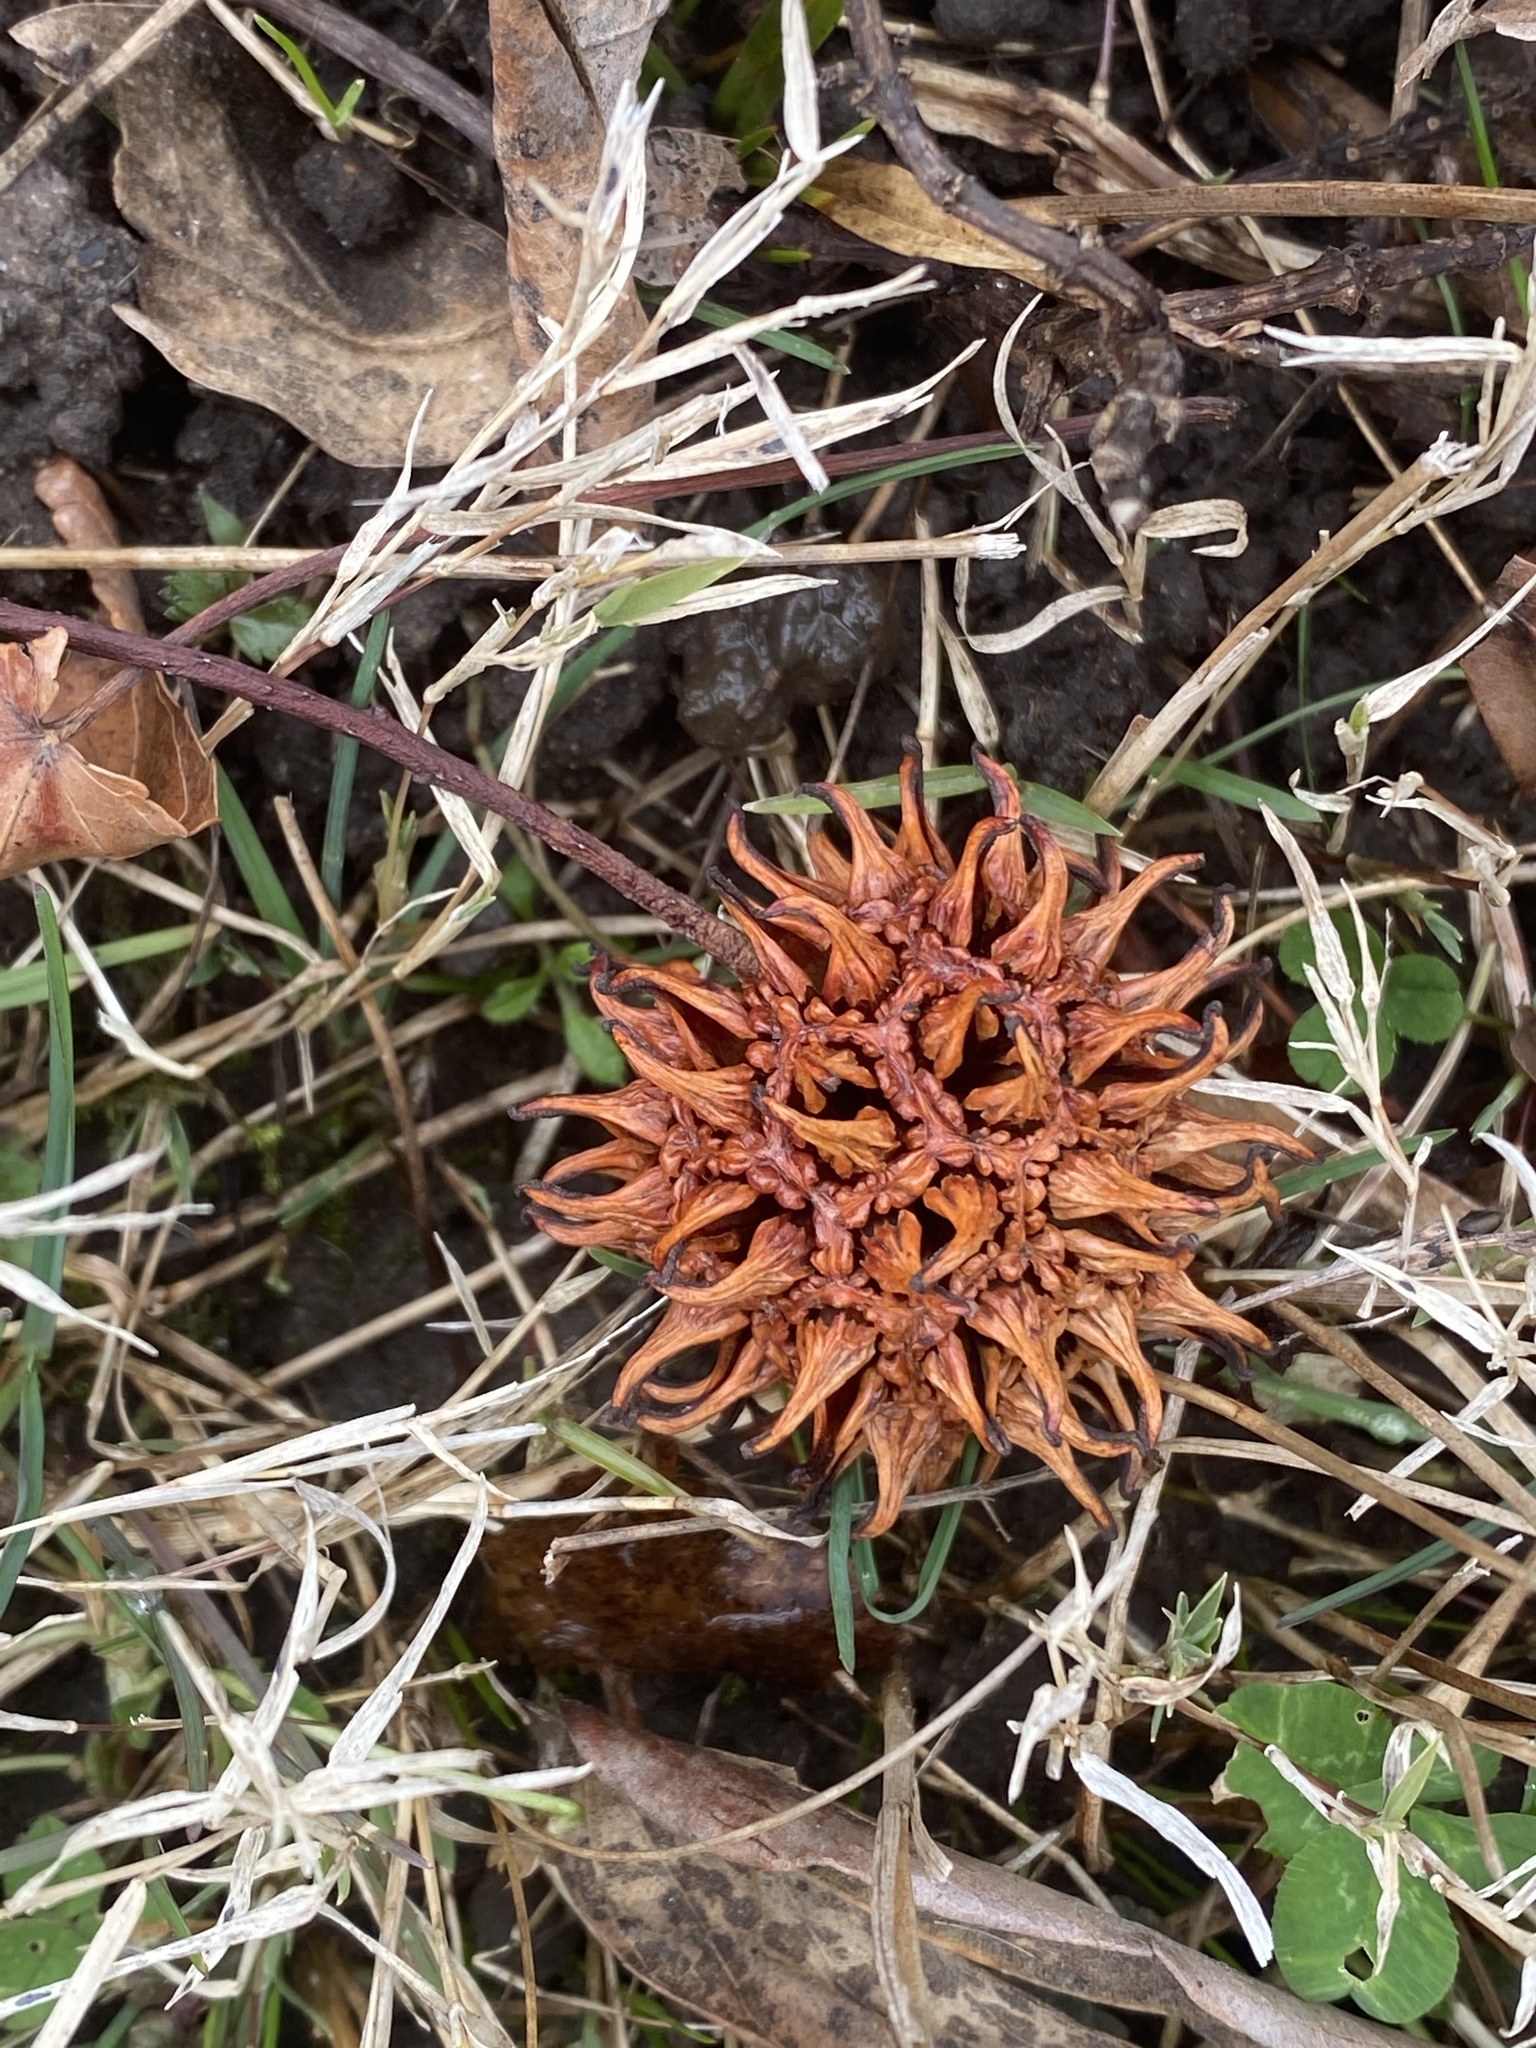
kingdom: Plantae
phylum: Tracheophyta
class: Magnoliopsida
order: Saxifragales
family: Altingiaceae
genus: Liquidambar
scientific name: Liquidambar styraciflua
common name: Sweet gum
